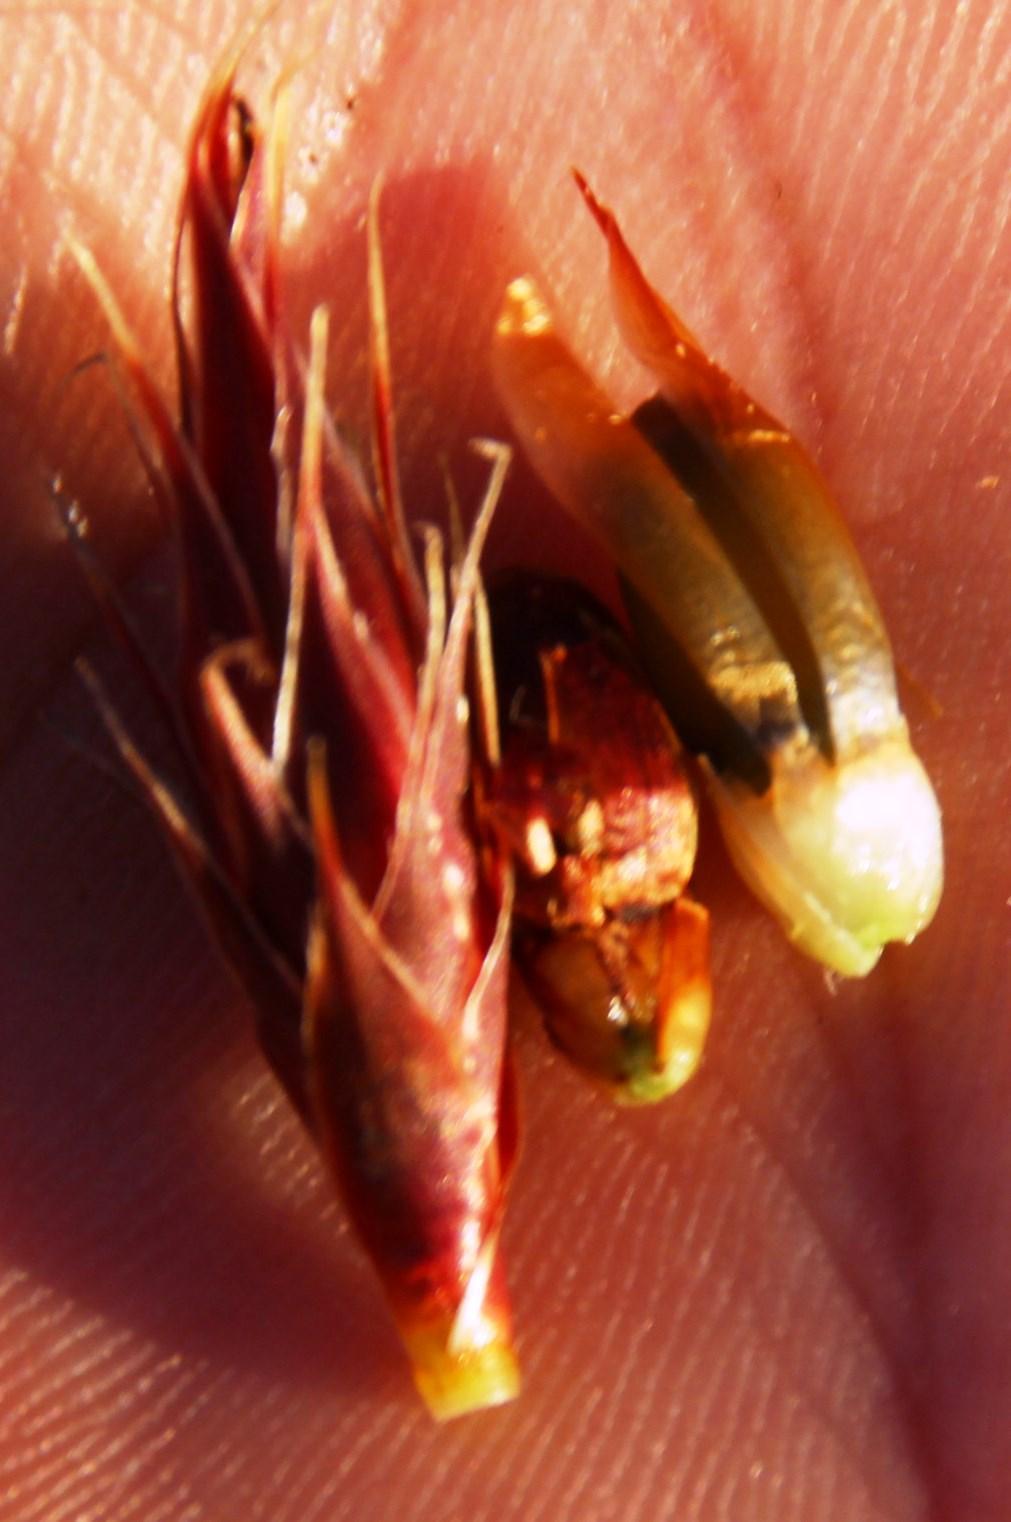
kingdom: Plantae
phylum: Tracheophyta
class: Liliopsida
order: Poales
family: Restionaceae
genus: Hypodiscus
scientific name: Hypodiscus aristatus
